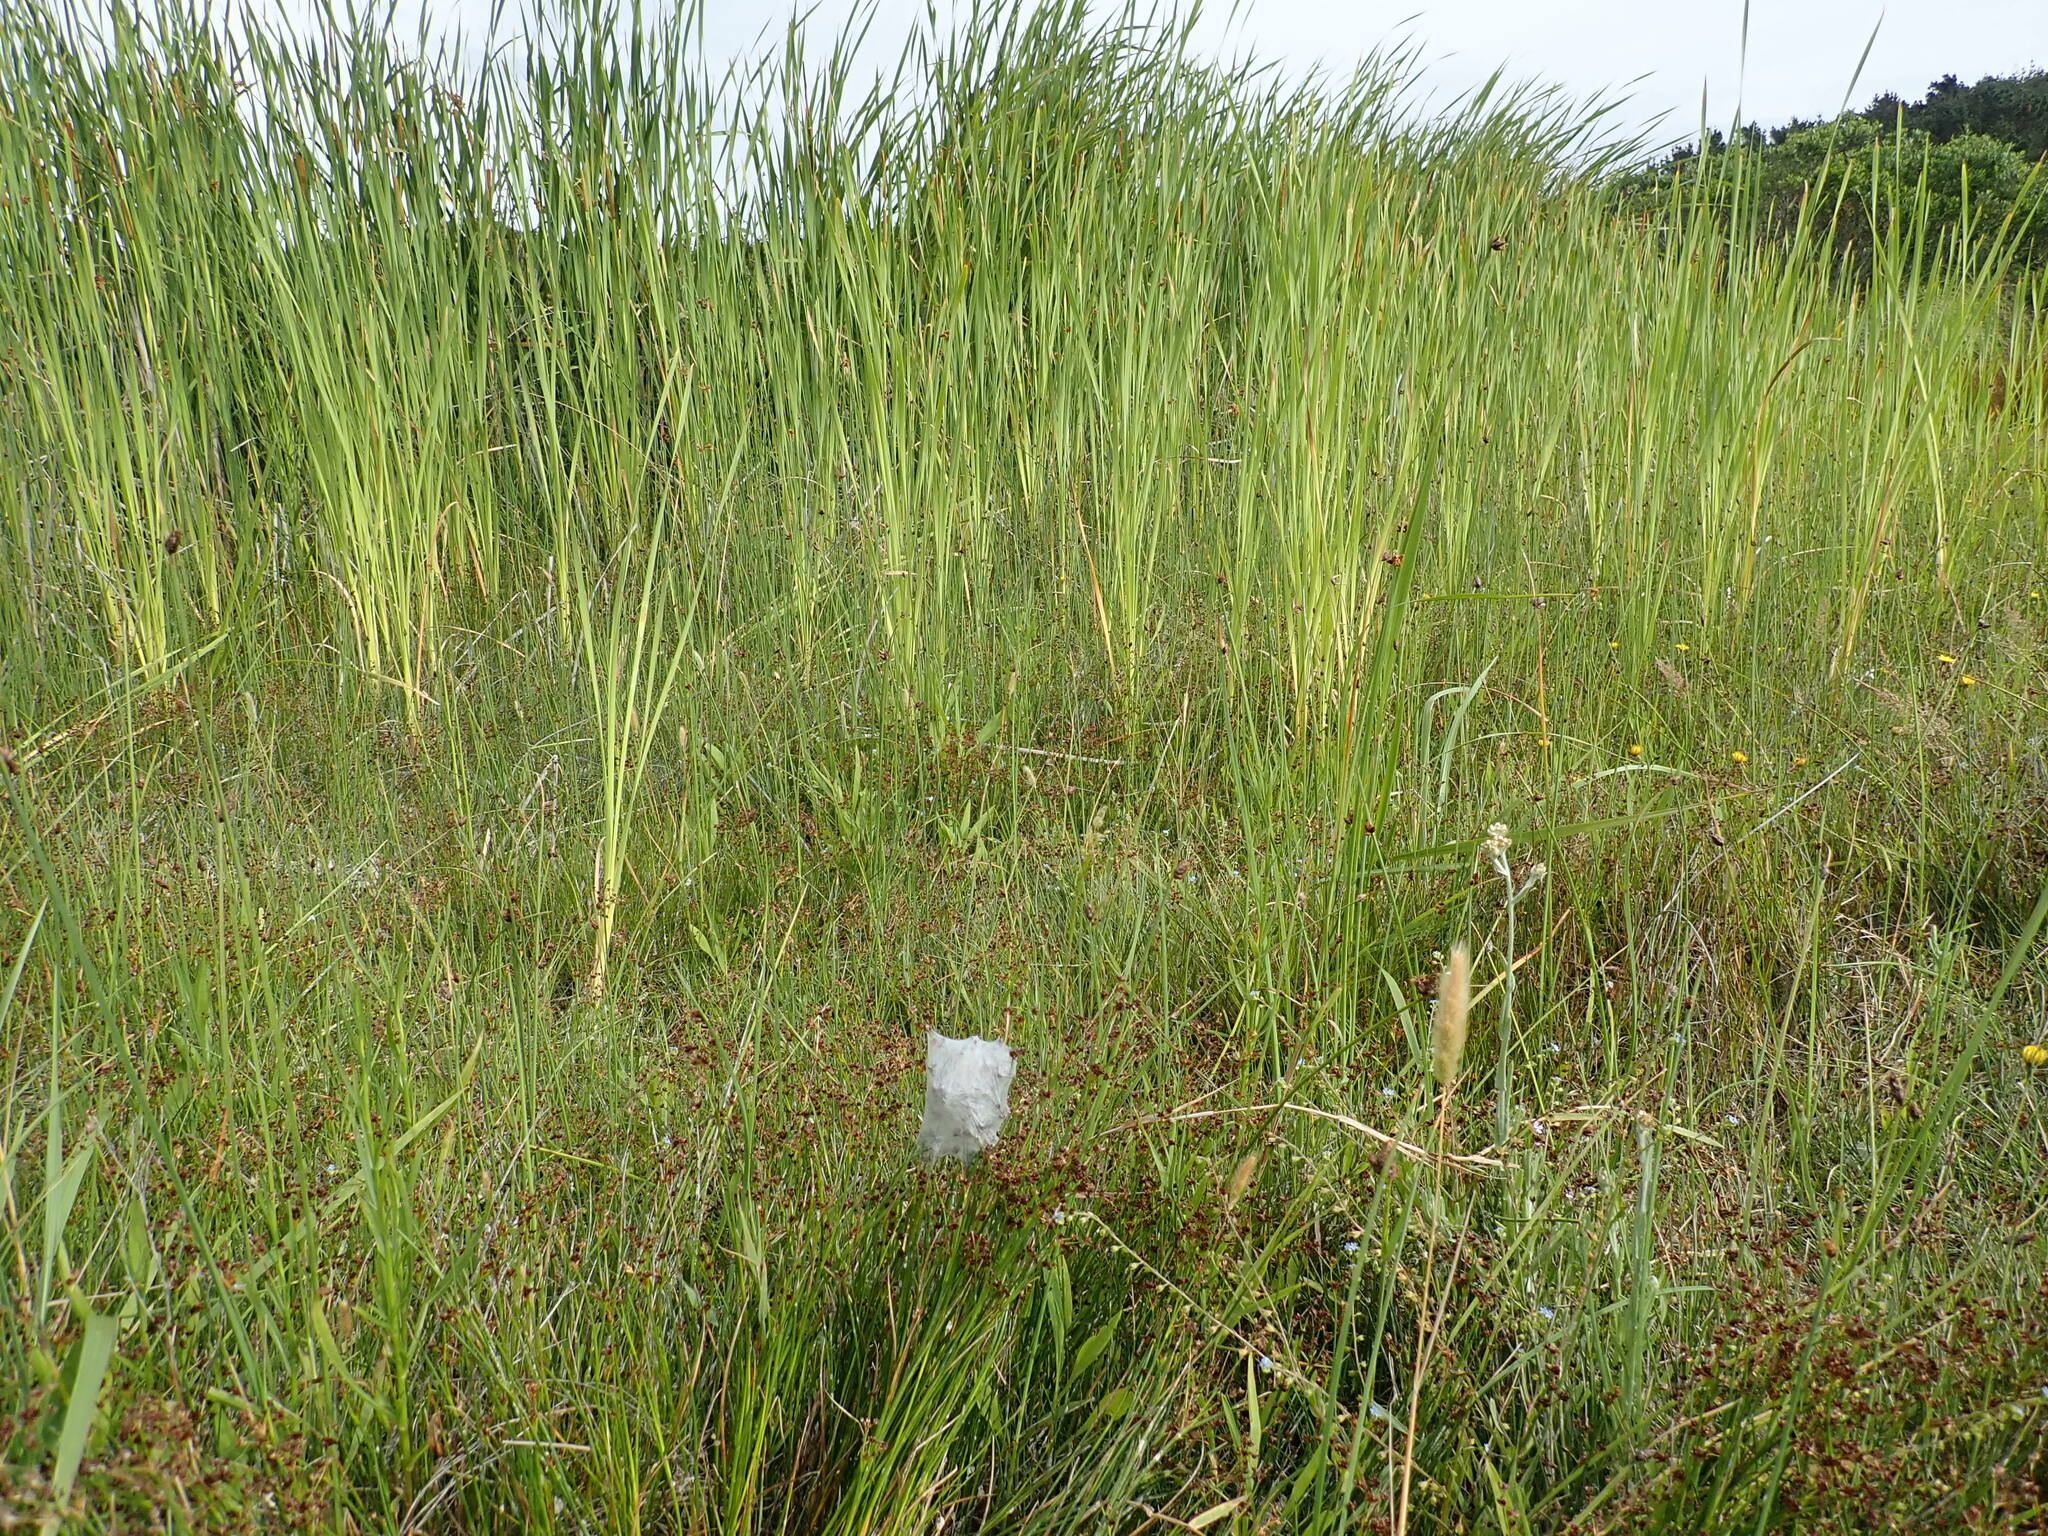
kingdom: Animalia
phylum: Arthropoda
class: Arachnida
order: Araneae
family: Pisauridae
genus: Dolomedes
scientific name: Dolomedes minor
